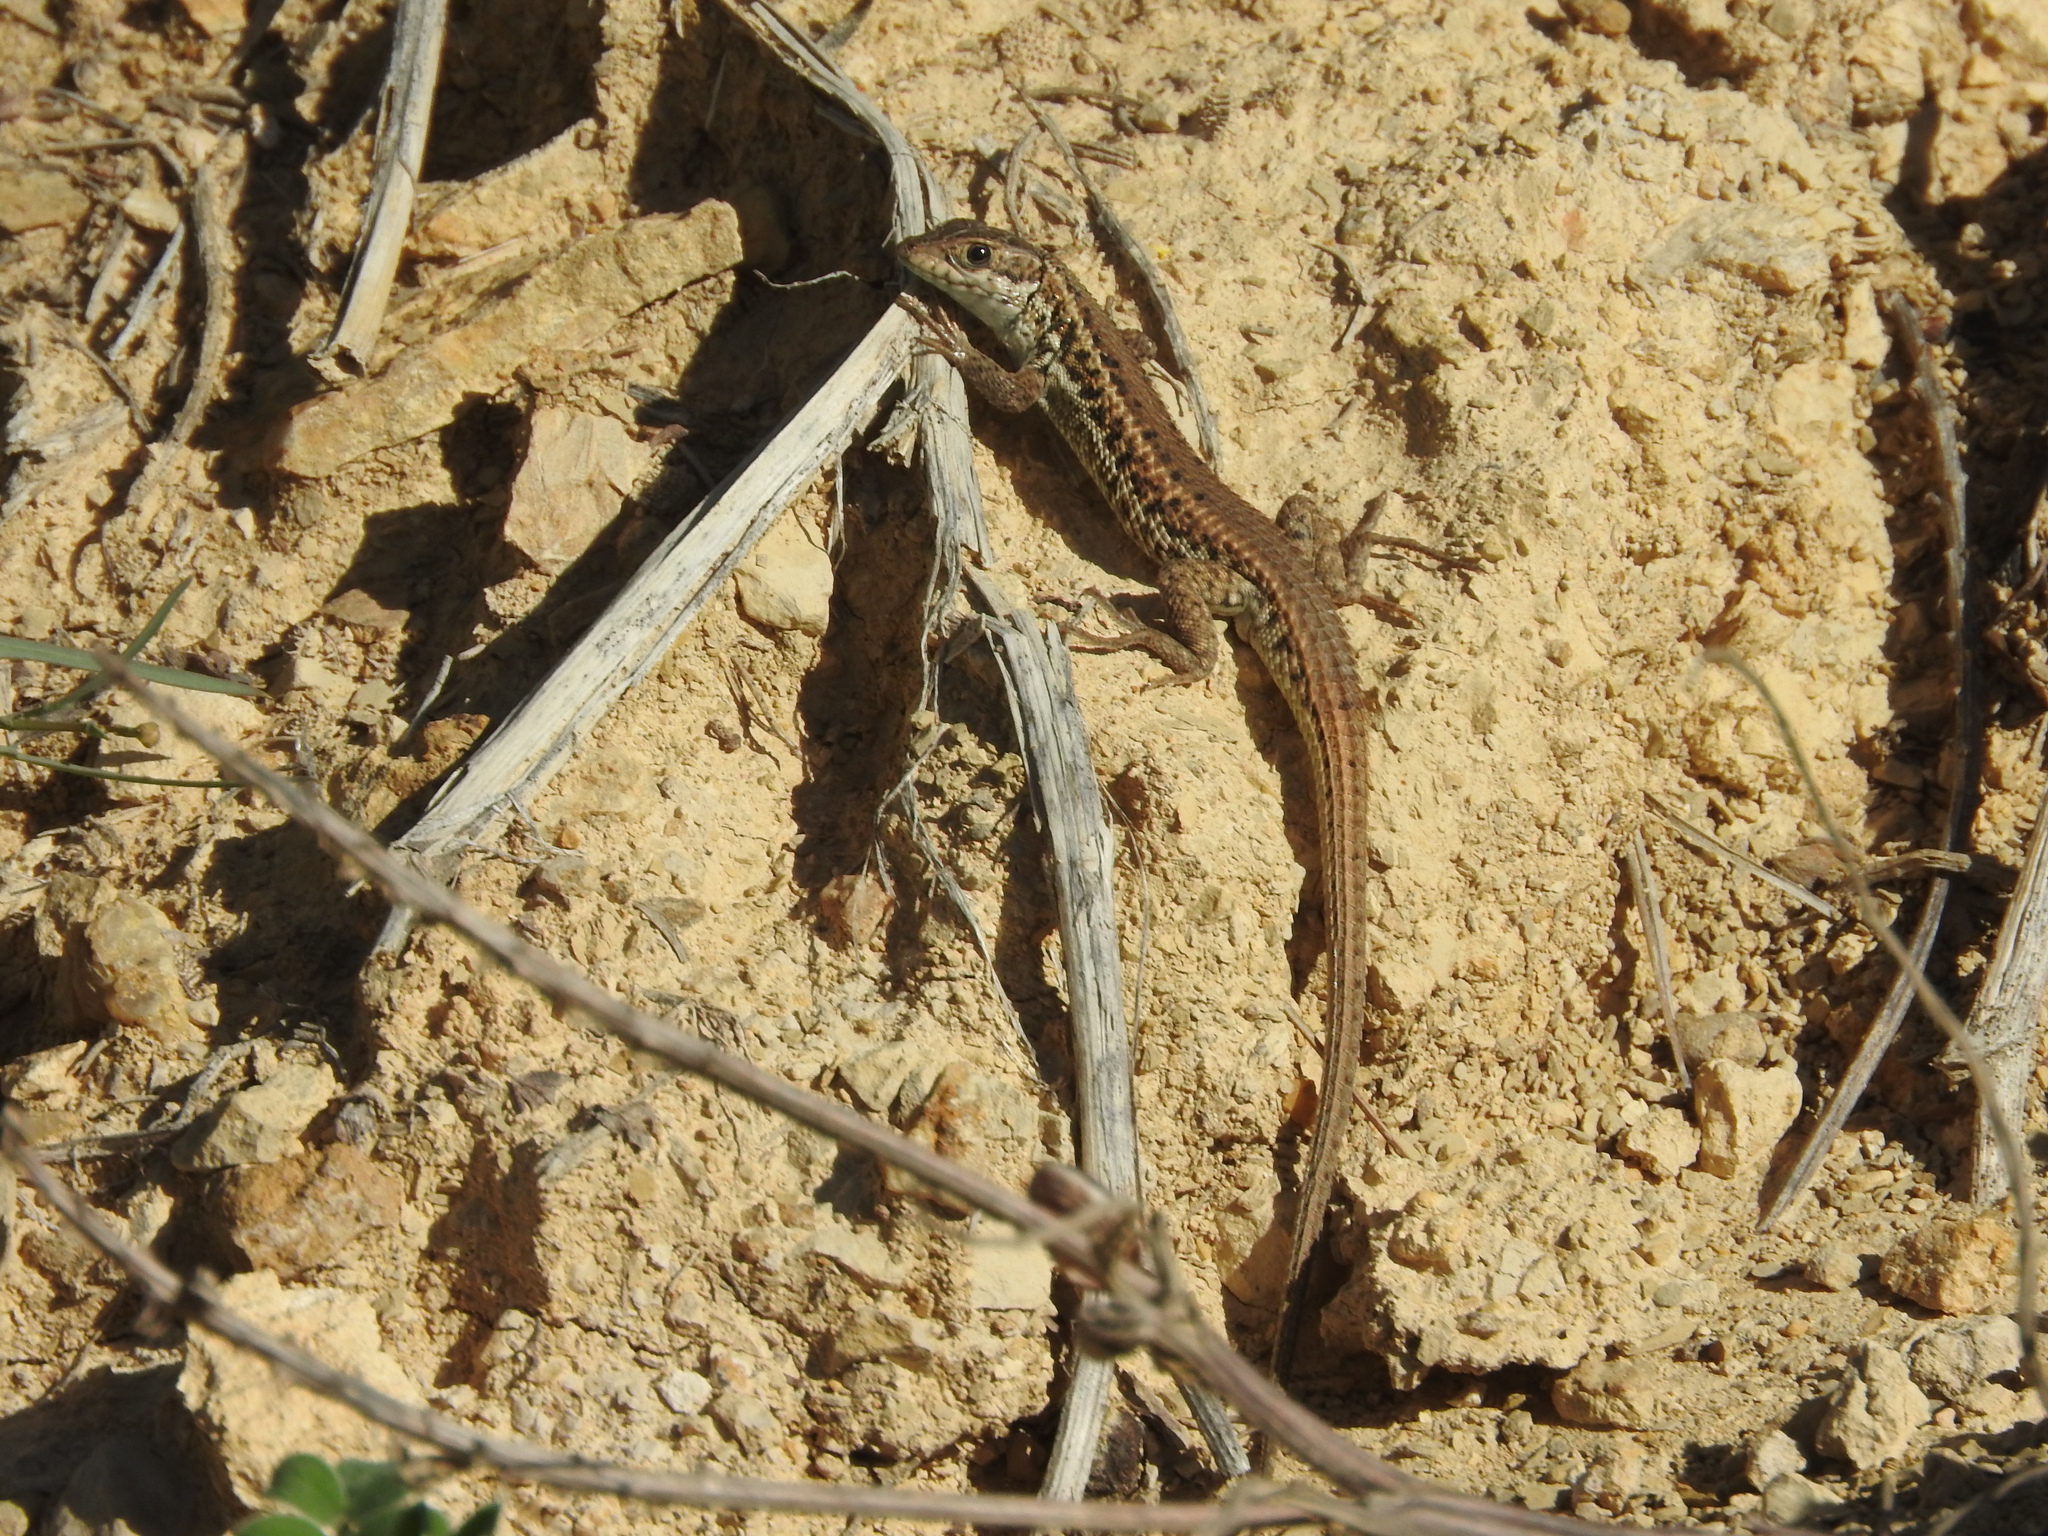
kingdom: Animalia
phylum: Chordata
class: Squamata
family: Lacertidae
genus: Ophisops
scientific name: Ophisops occidentalis
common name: Western snake-eyed lizard
